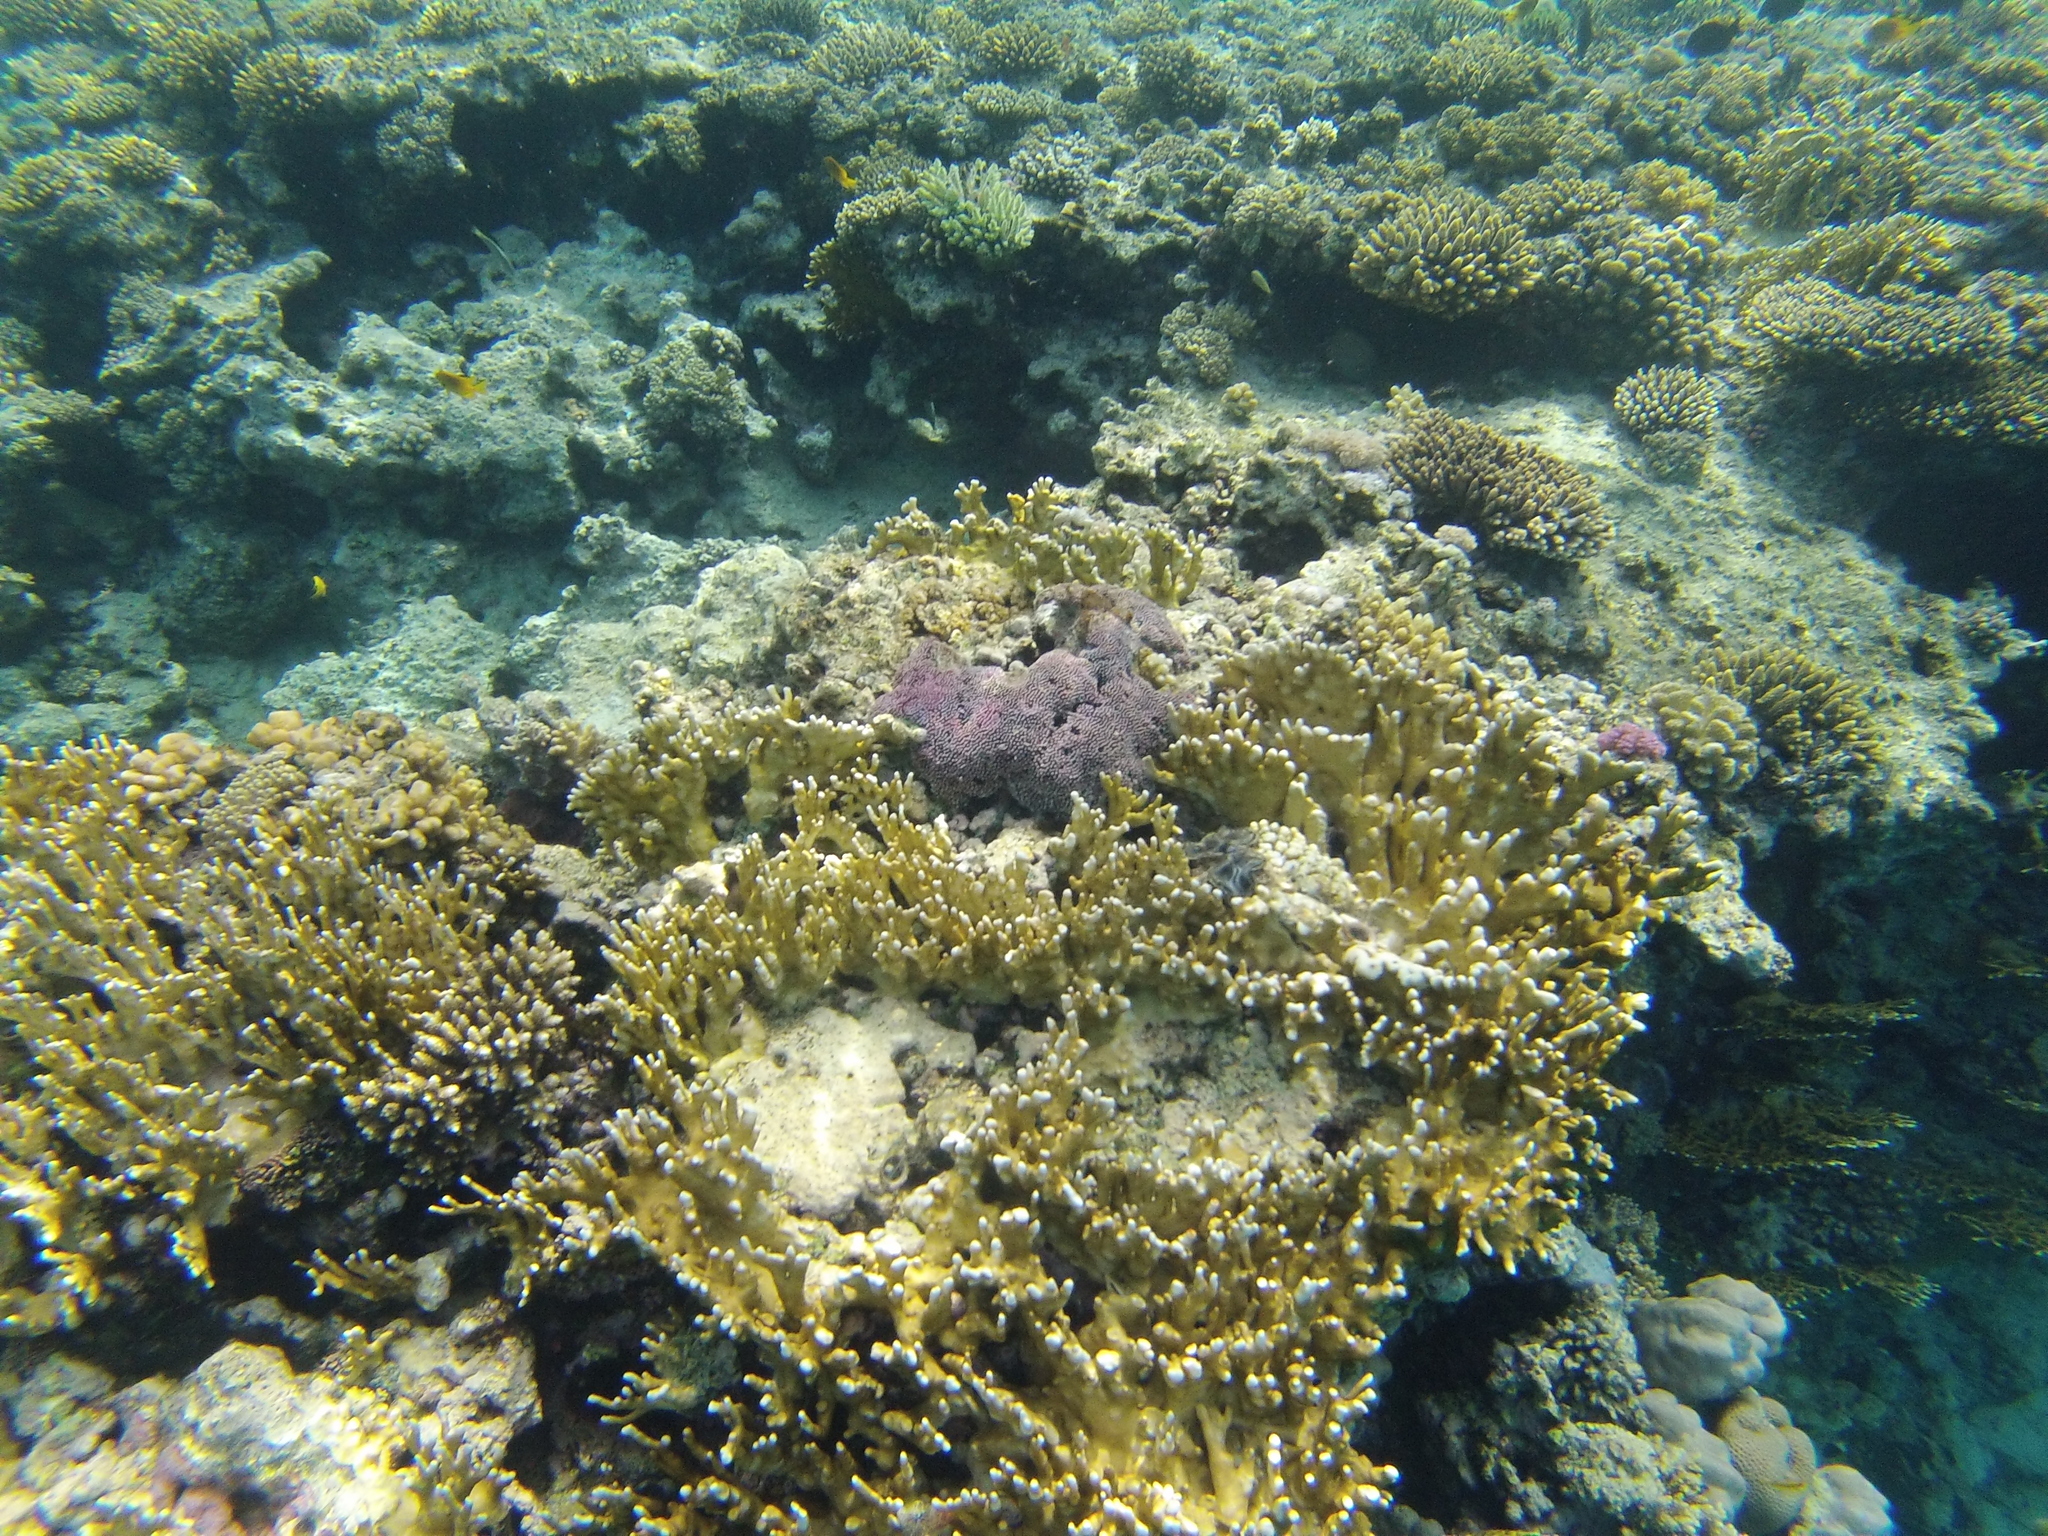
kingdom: Animalia
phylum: Cnidaria
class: Hydrozoa
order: Anthoathecata
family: Milleporidae
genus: Millepora
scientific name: Millepora dichotoma
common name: Ramified fire coral
